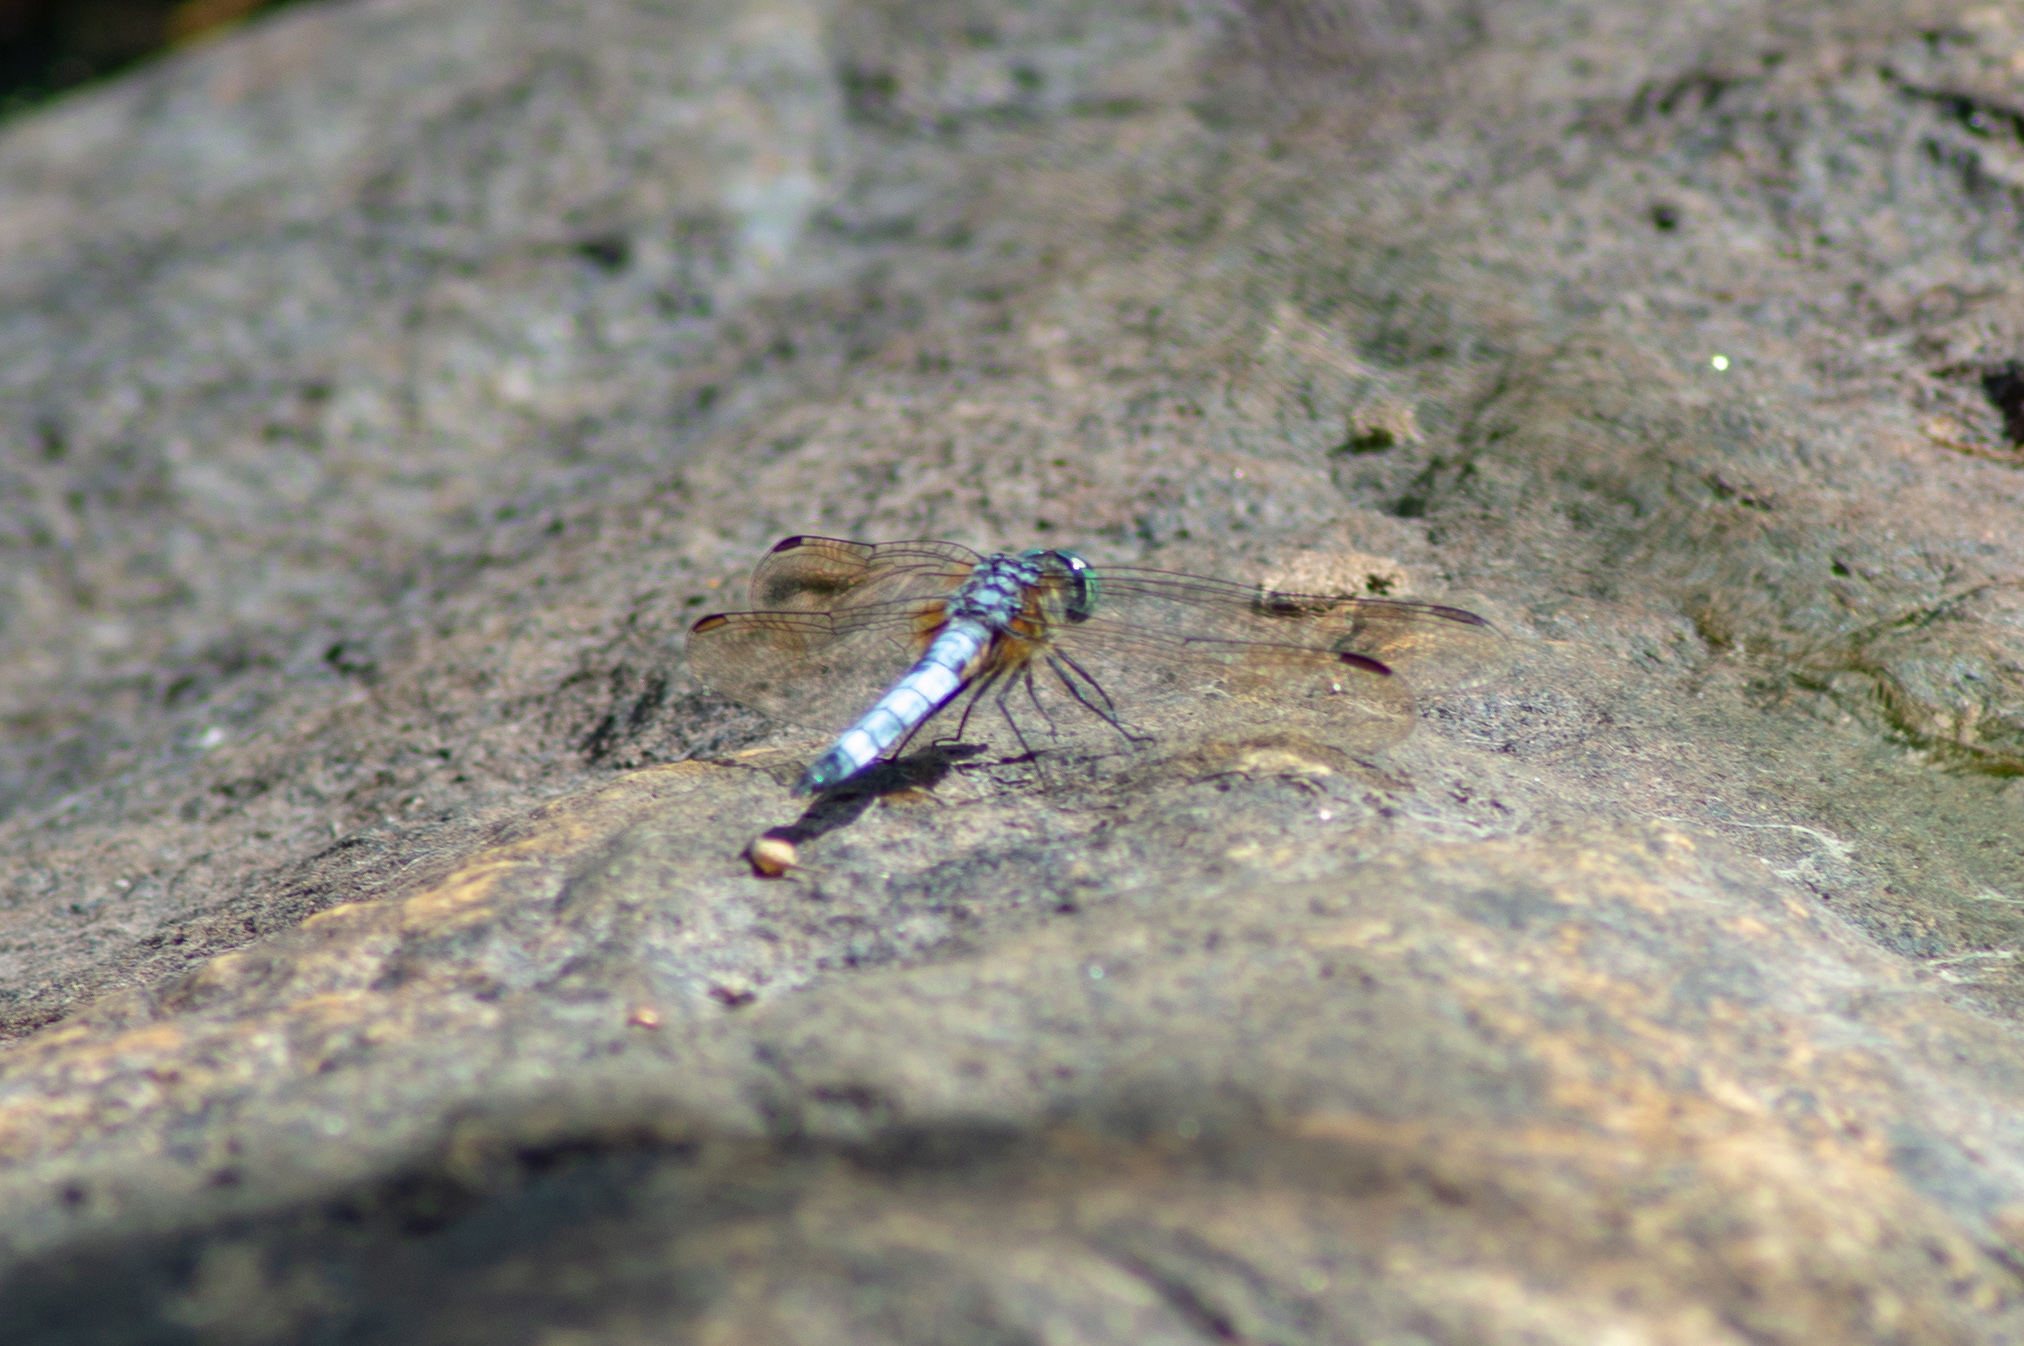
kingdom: Animalia
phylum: Arthropoda
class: Insecta
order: Odonata
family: Libellulidae
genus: Pachydiplax
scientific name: Pachydiplax longipennis
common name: Blue dasher
